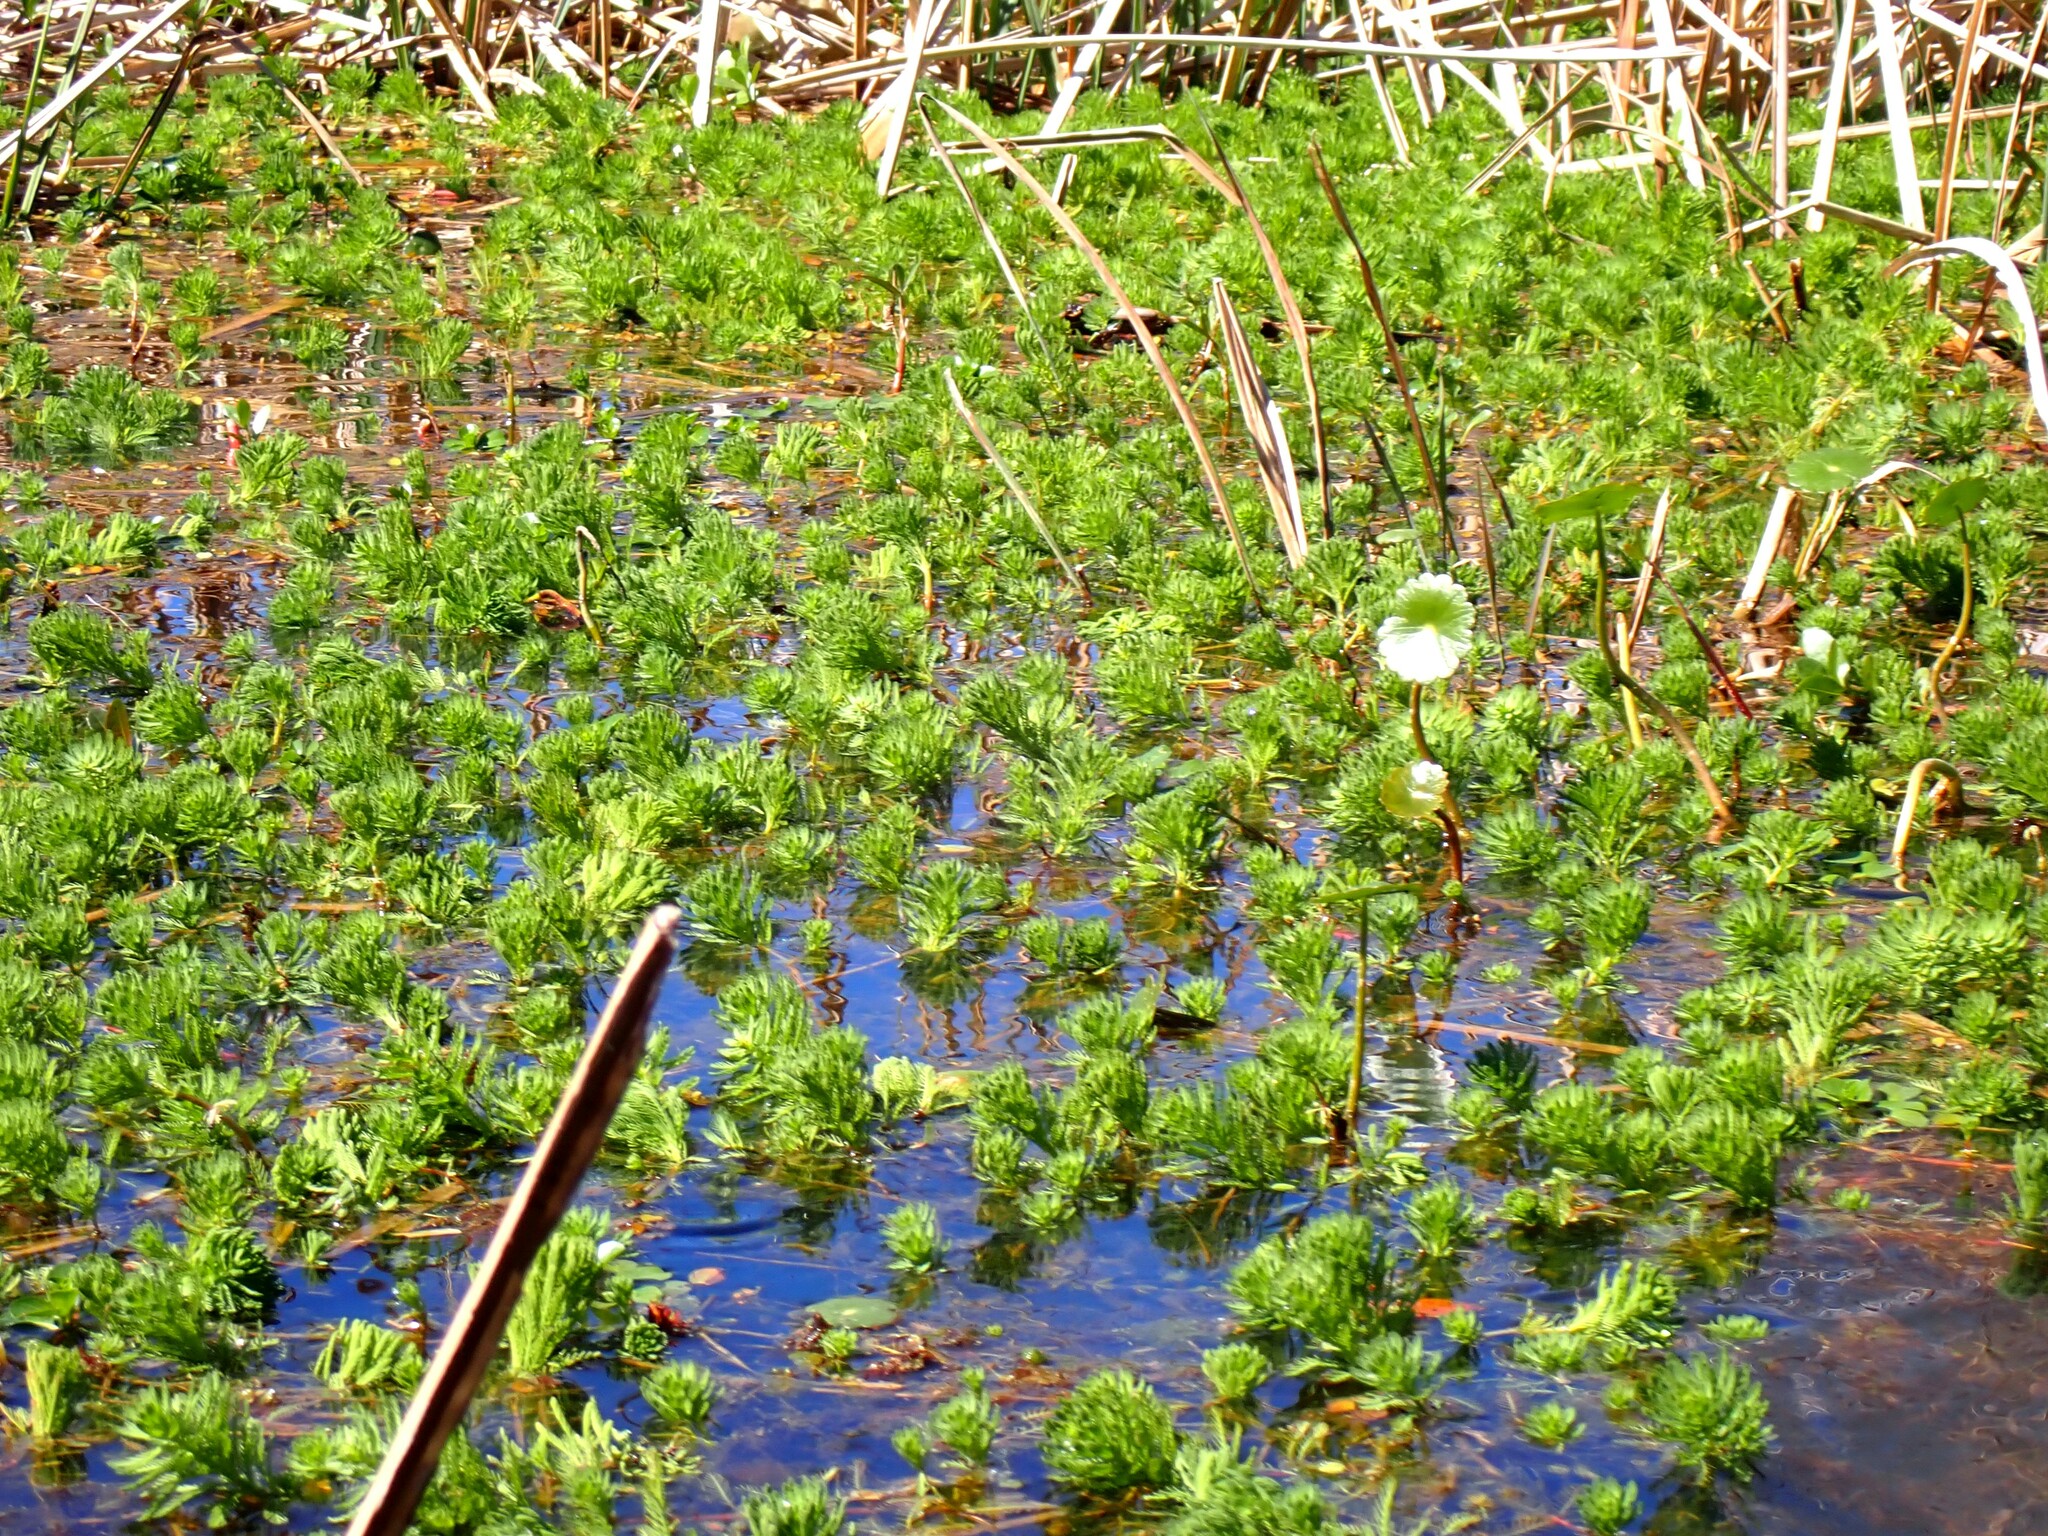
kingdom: Plantae
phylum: Tracheophyta
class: Magnoliopsida
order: Saxifragales
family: Haloragaceae
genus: Myriophyllum
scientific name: Myriophyllum aquaticum
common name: Parrot's feather
